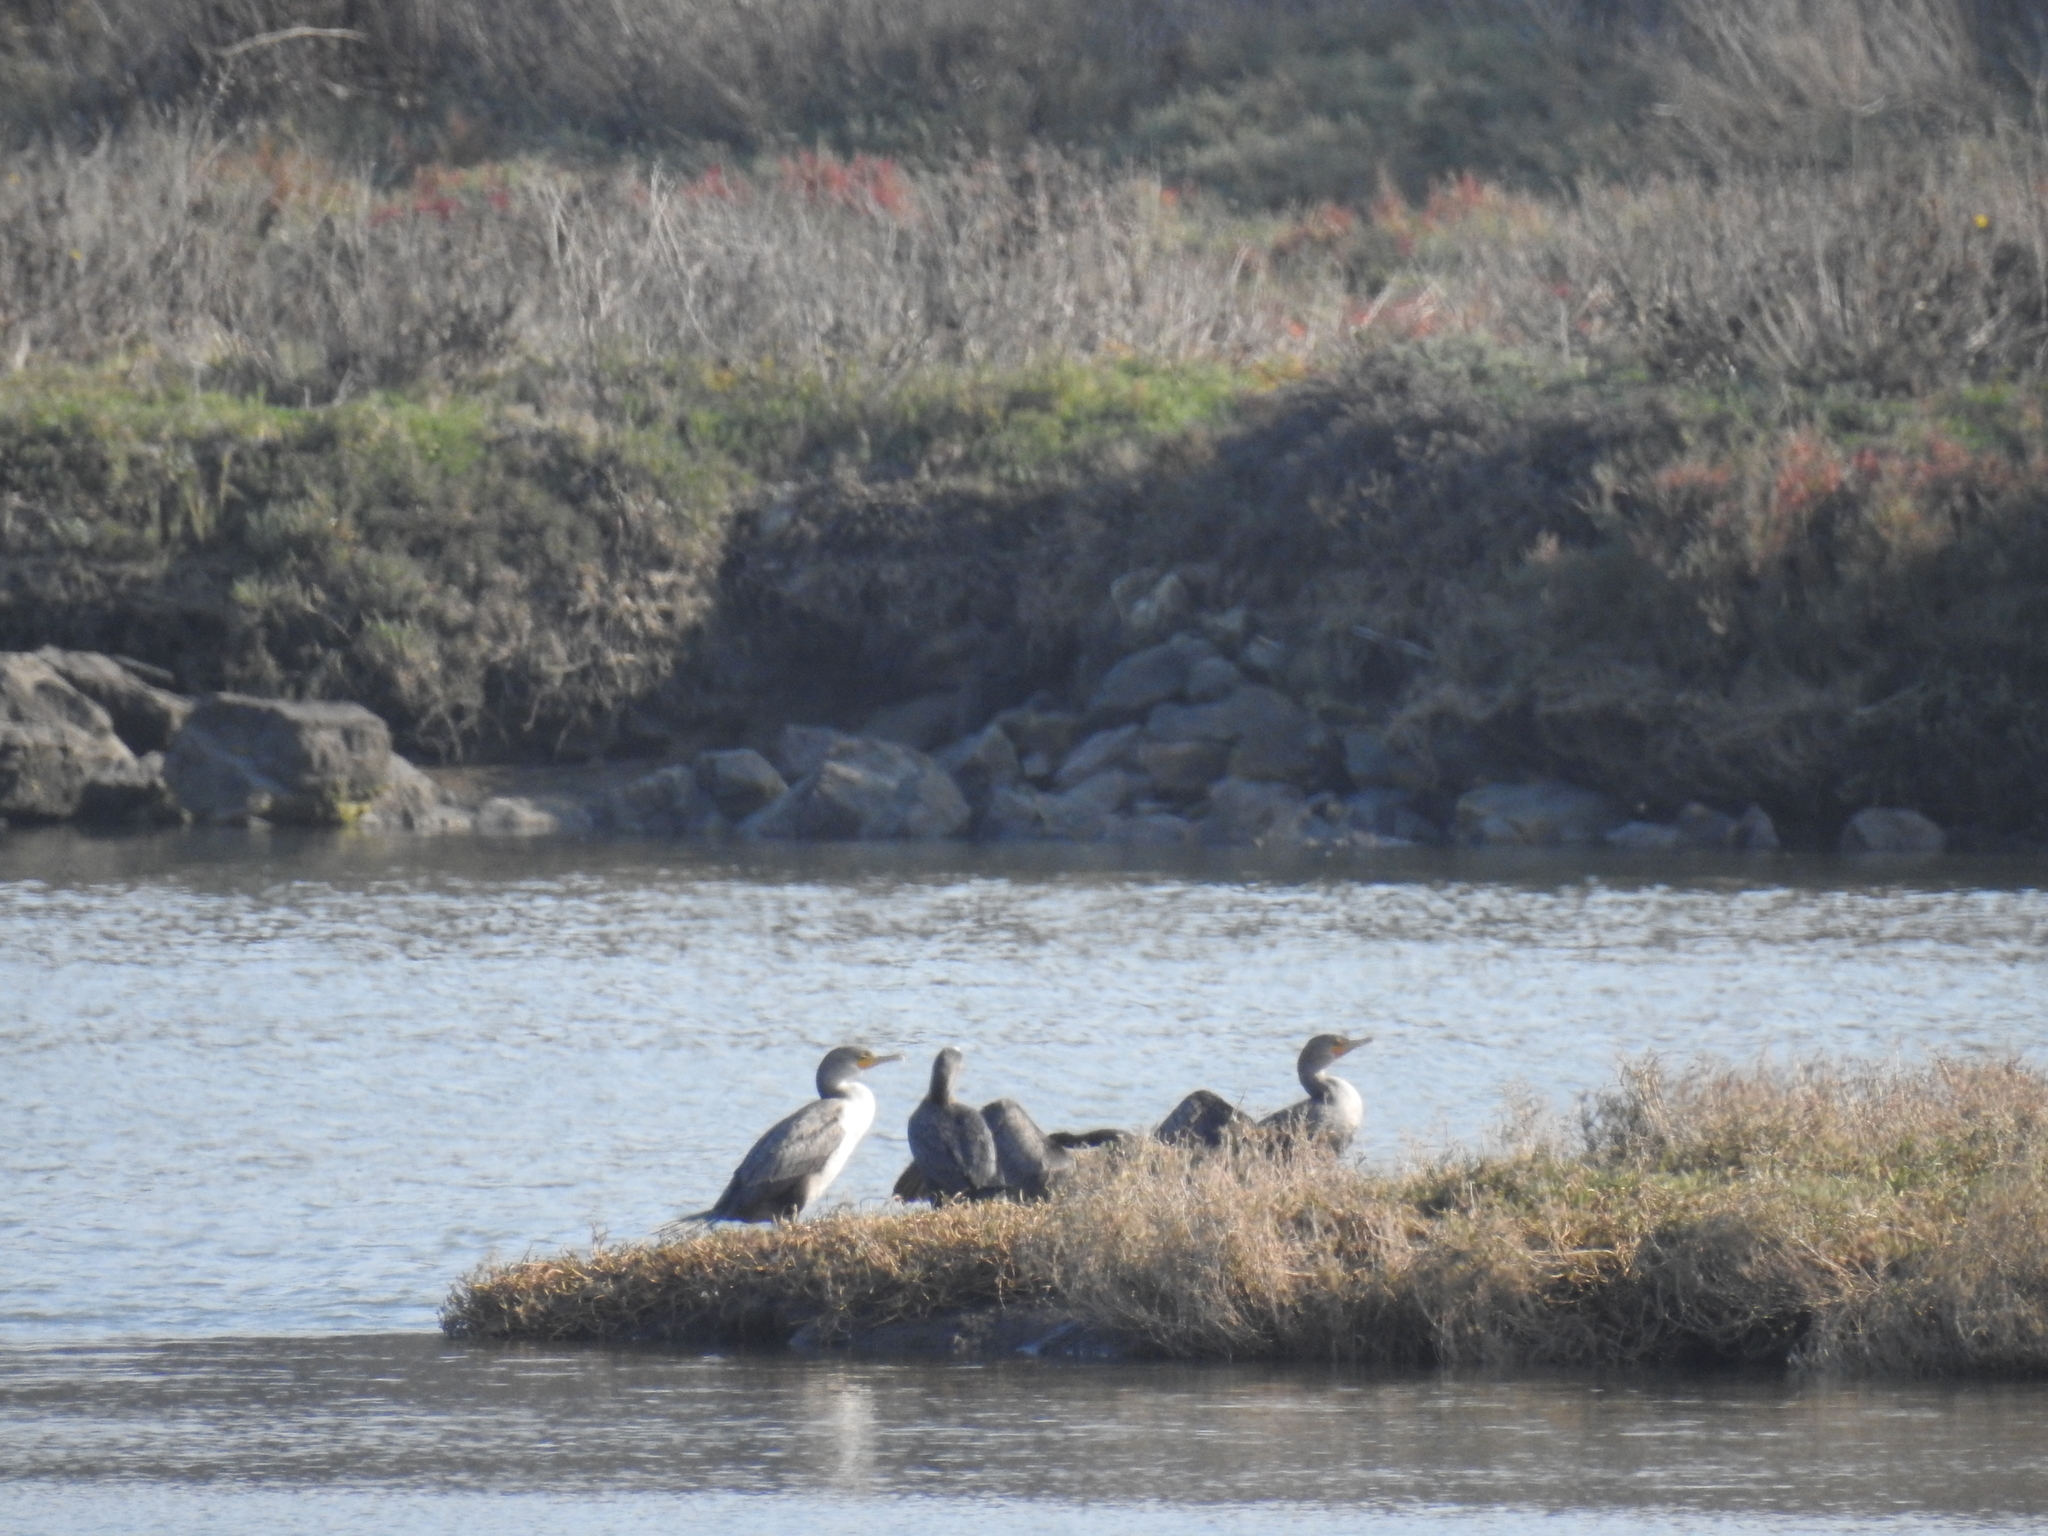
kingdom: Animalia
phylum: Chordata
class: Aves
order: Suliformes
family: Phalacrocoracidae
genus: Phalacrocorax
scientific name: Phalacrocorax auritus
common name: Double-crested cormorant
